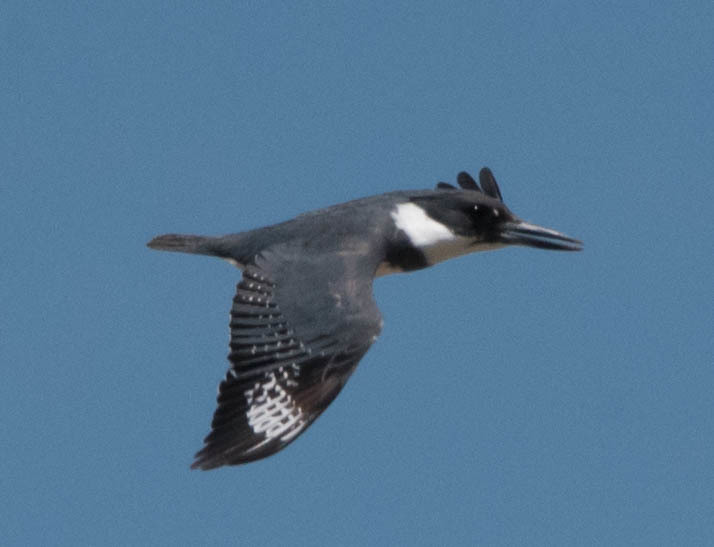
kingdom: Animalia
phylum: Chordata
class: Aves
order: Coraciiformes
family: Alcedinidae
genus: Megaceryle
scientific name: Megaceryle alcyon
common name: Belted kingfisher
